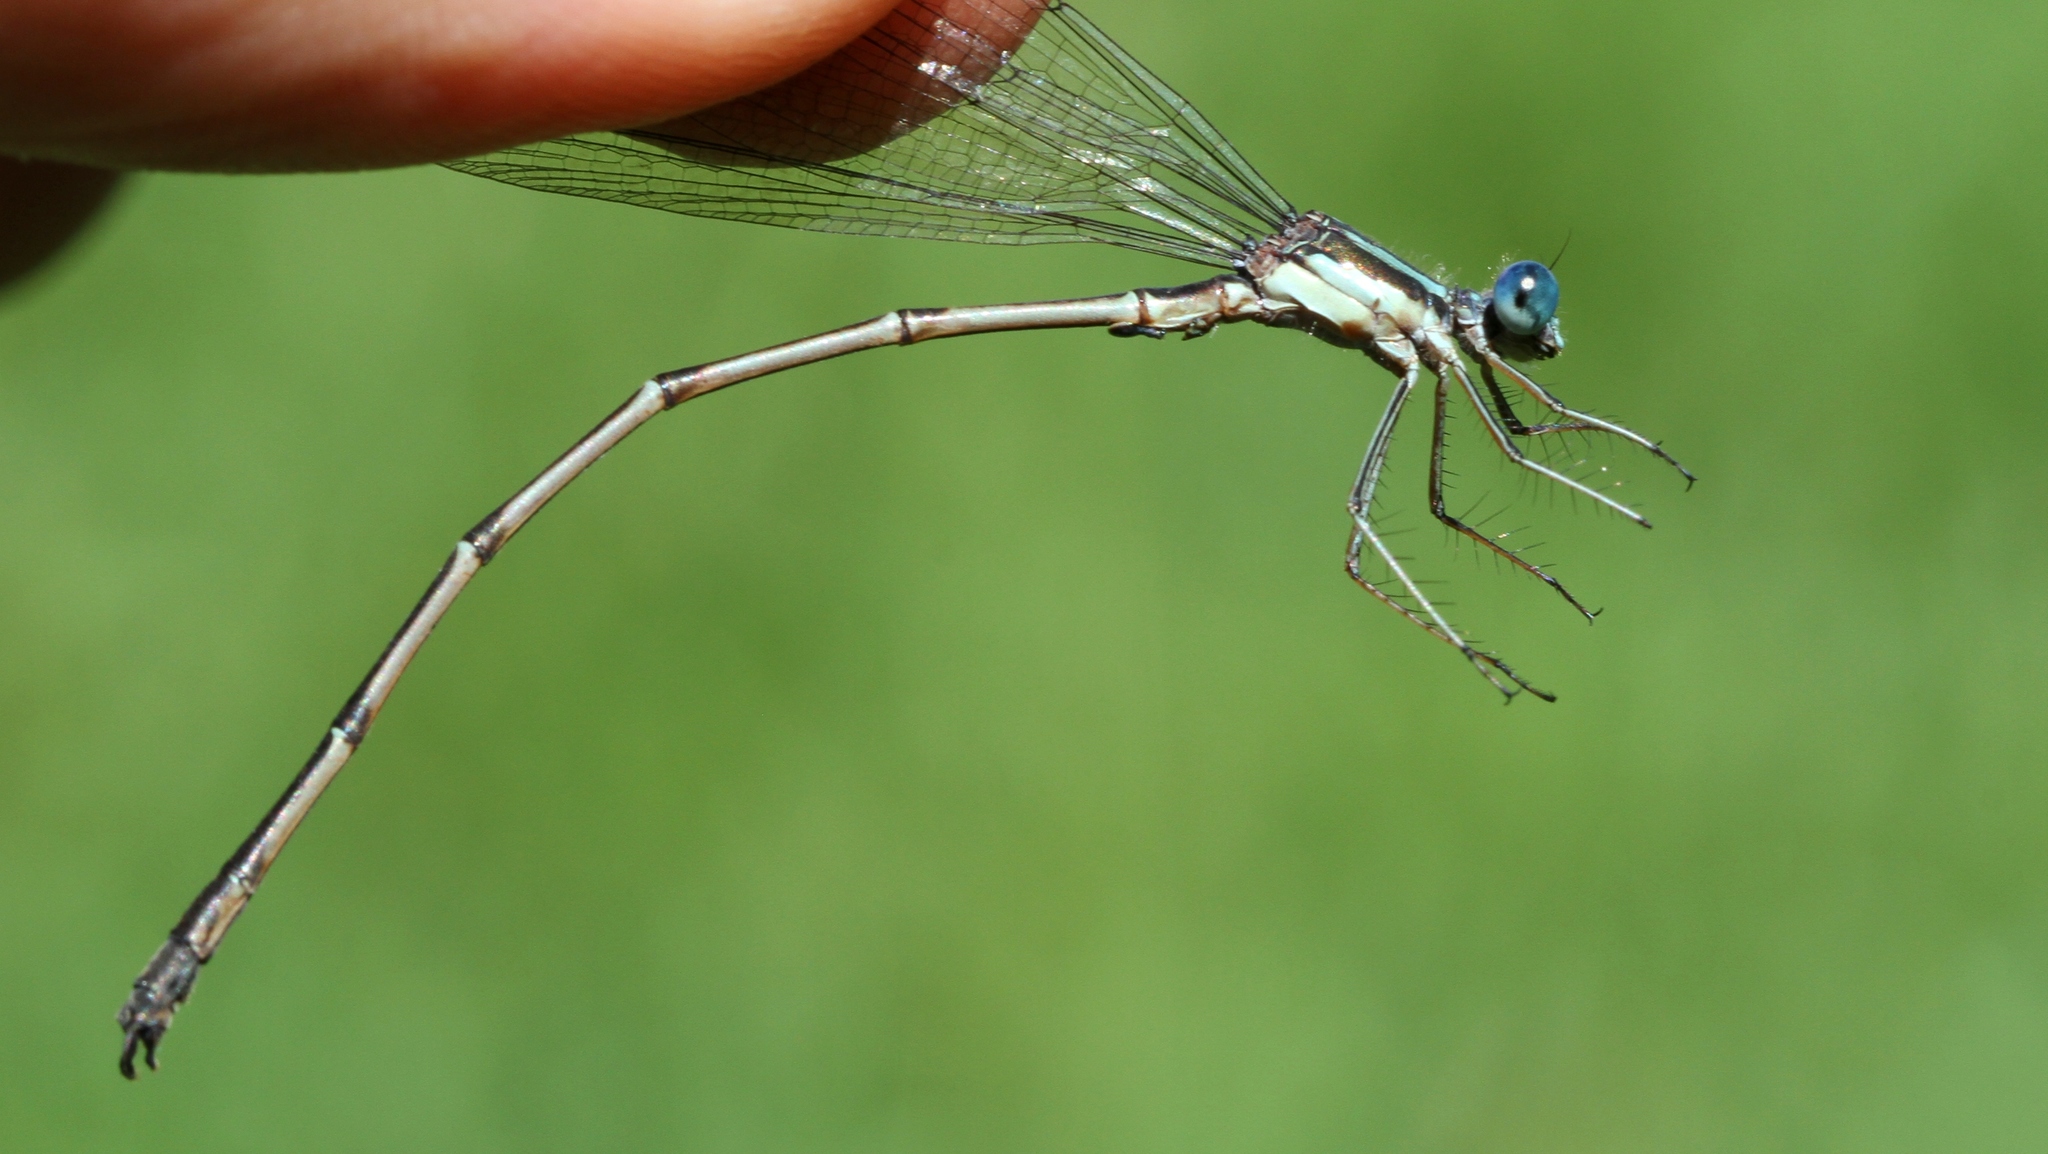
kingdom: Animalia
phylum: Arthropoda
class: Insecta
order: Odonata
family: Lestidae
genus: Lestes
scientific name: Lestes rectangularis
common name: Slender spreadwing
